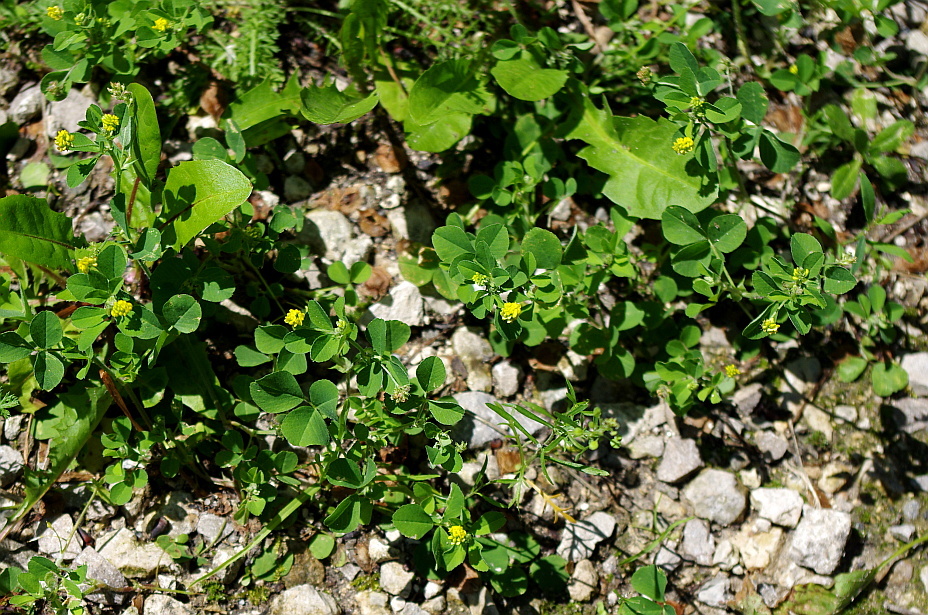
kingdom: Plantae
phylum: Tracheophyta
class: Magnoliopsida
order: Fabales
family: Fabaceae
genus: Medicago
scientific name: Medicago lupulina
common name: Black medick
